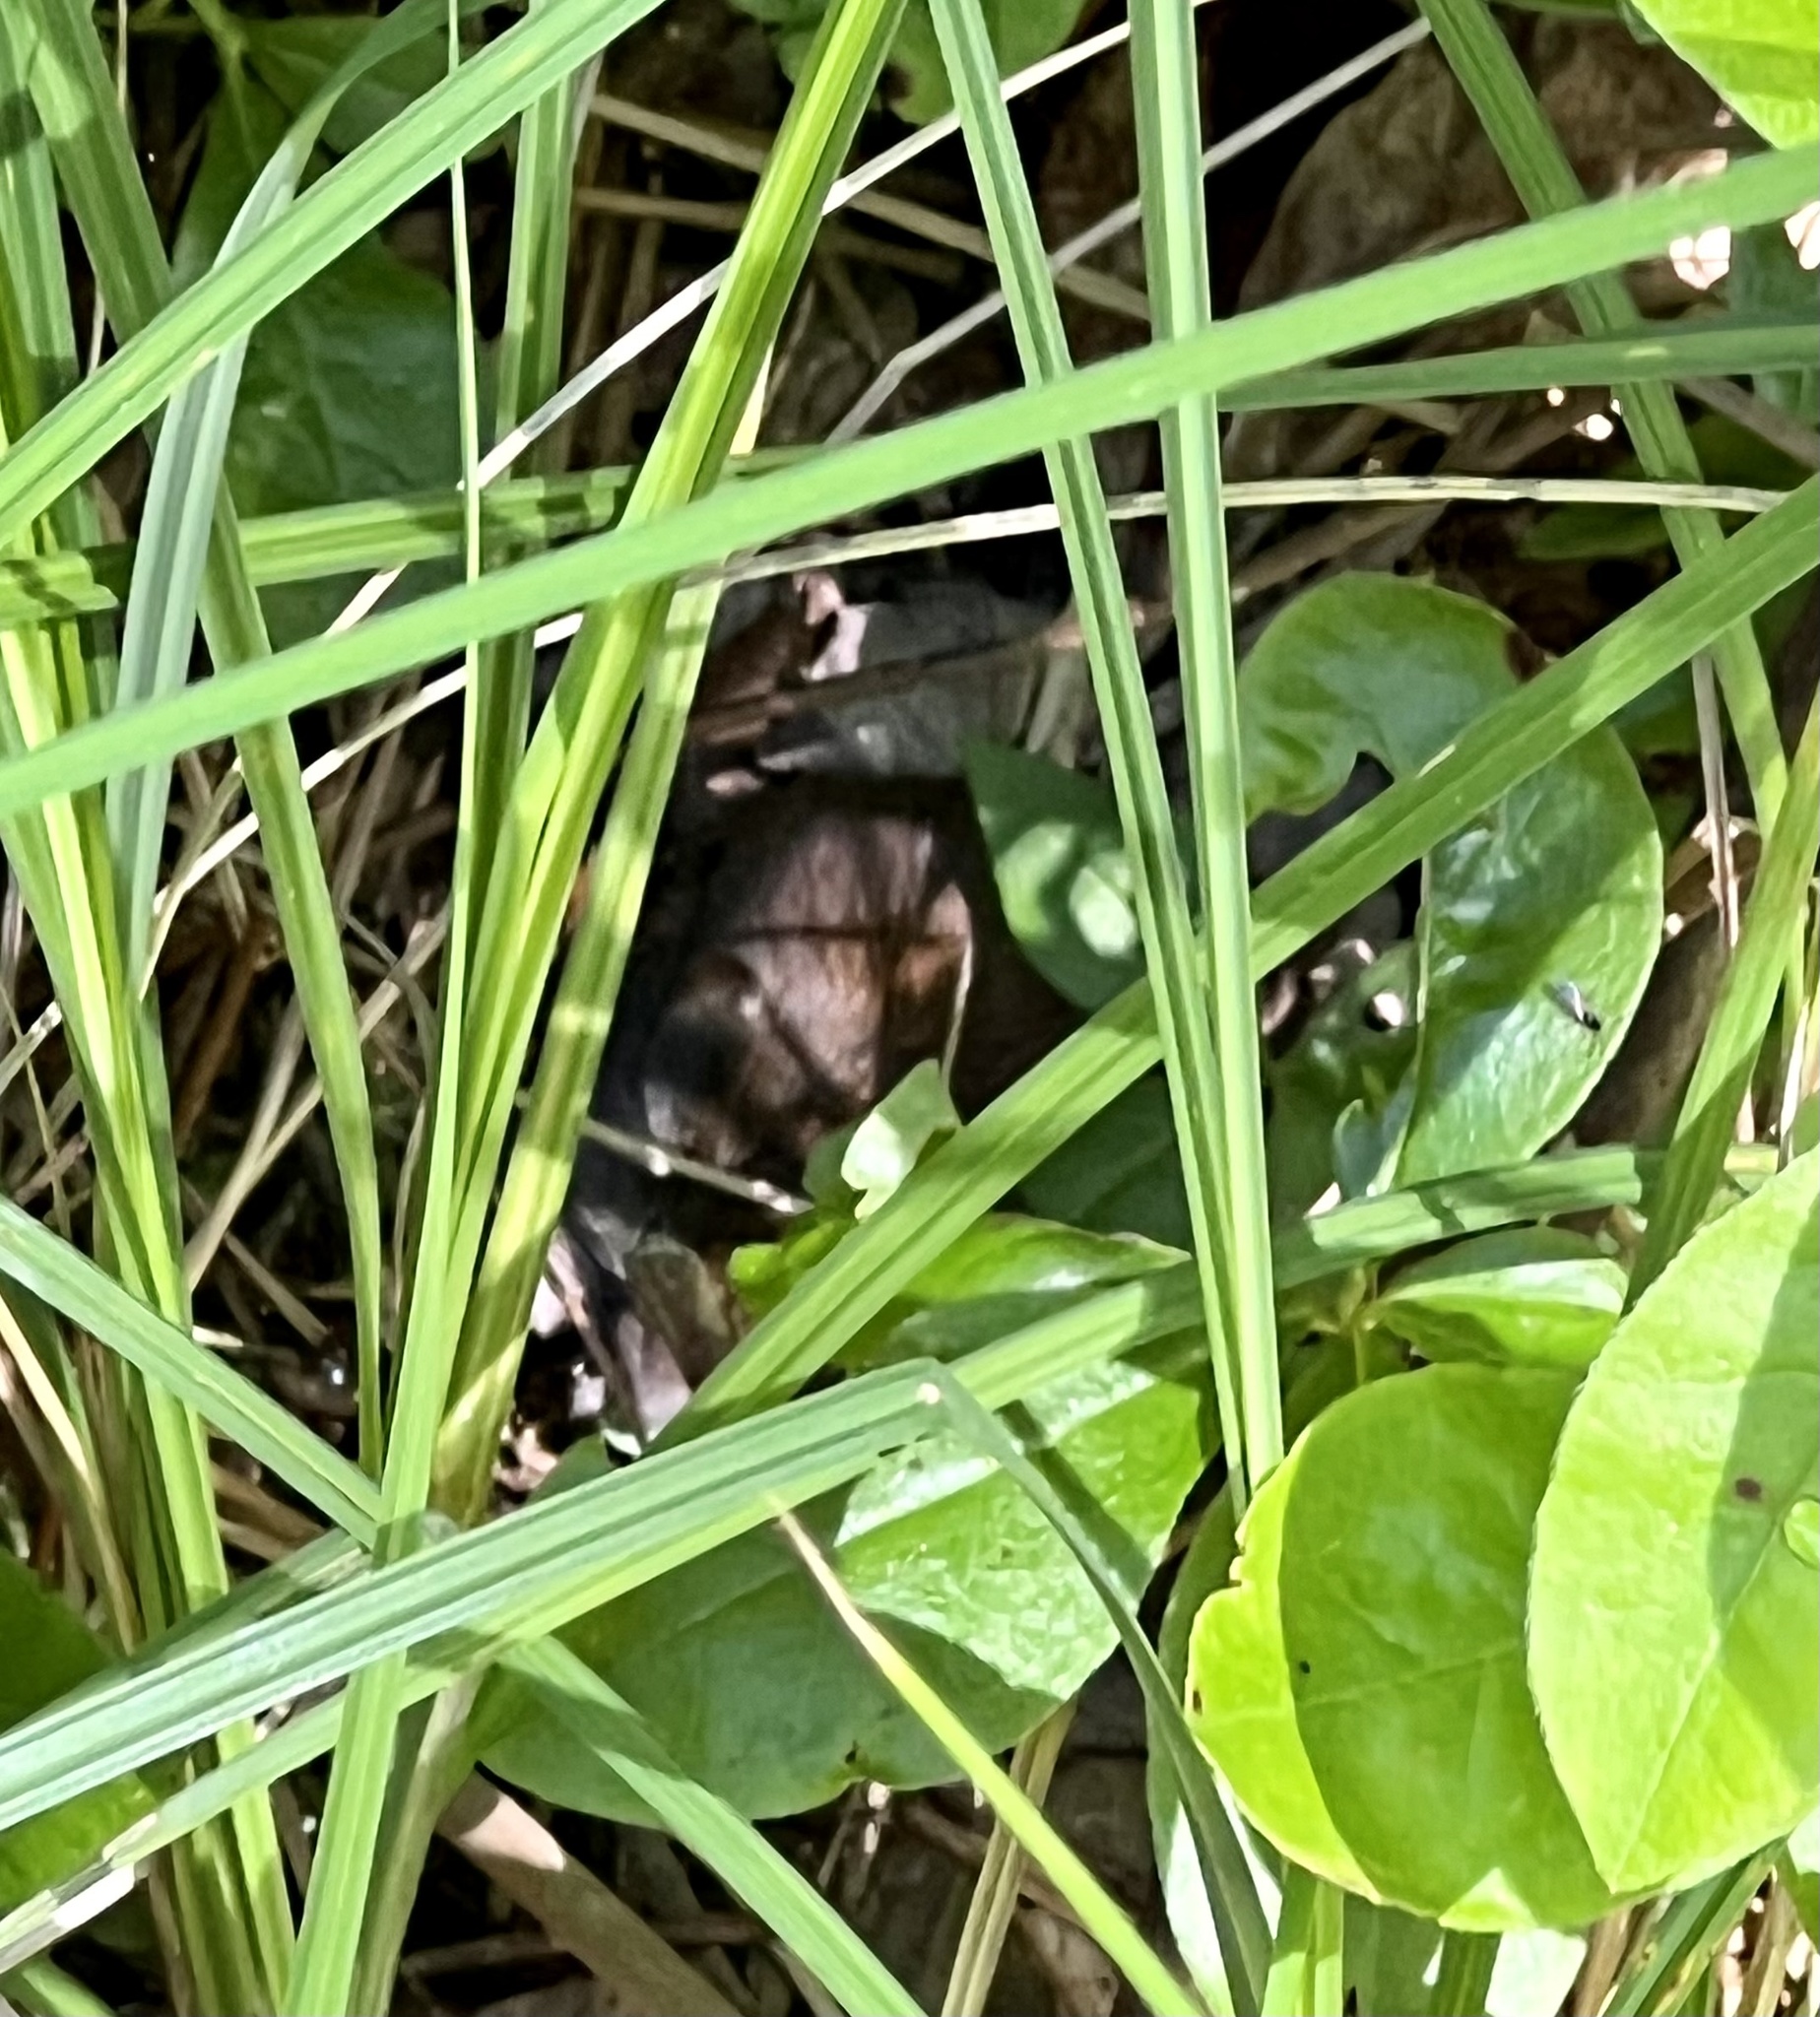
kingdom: Animalia
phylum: Chordata
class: Mammalia
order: Rodentia
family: Cricetidae
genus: Myodes
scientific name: Myodes gapperi
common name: Southern red-backed vole
